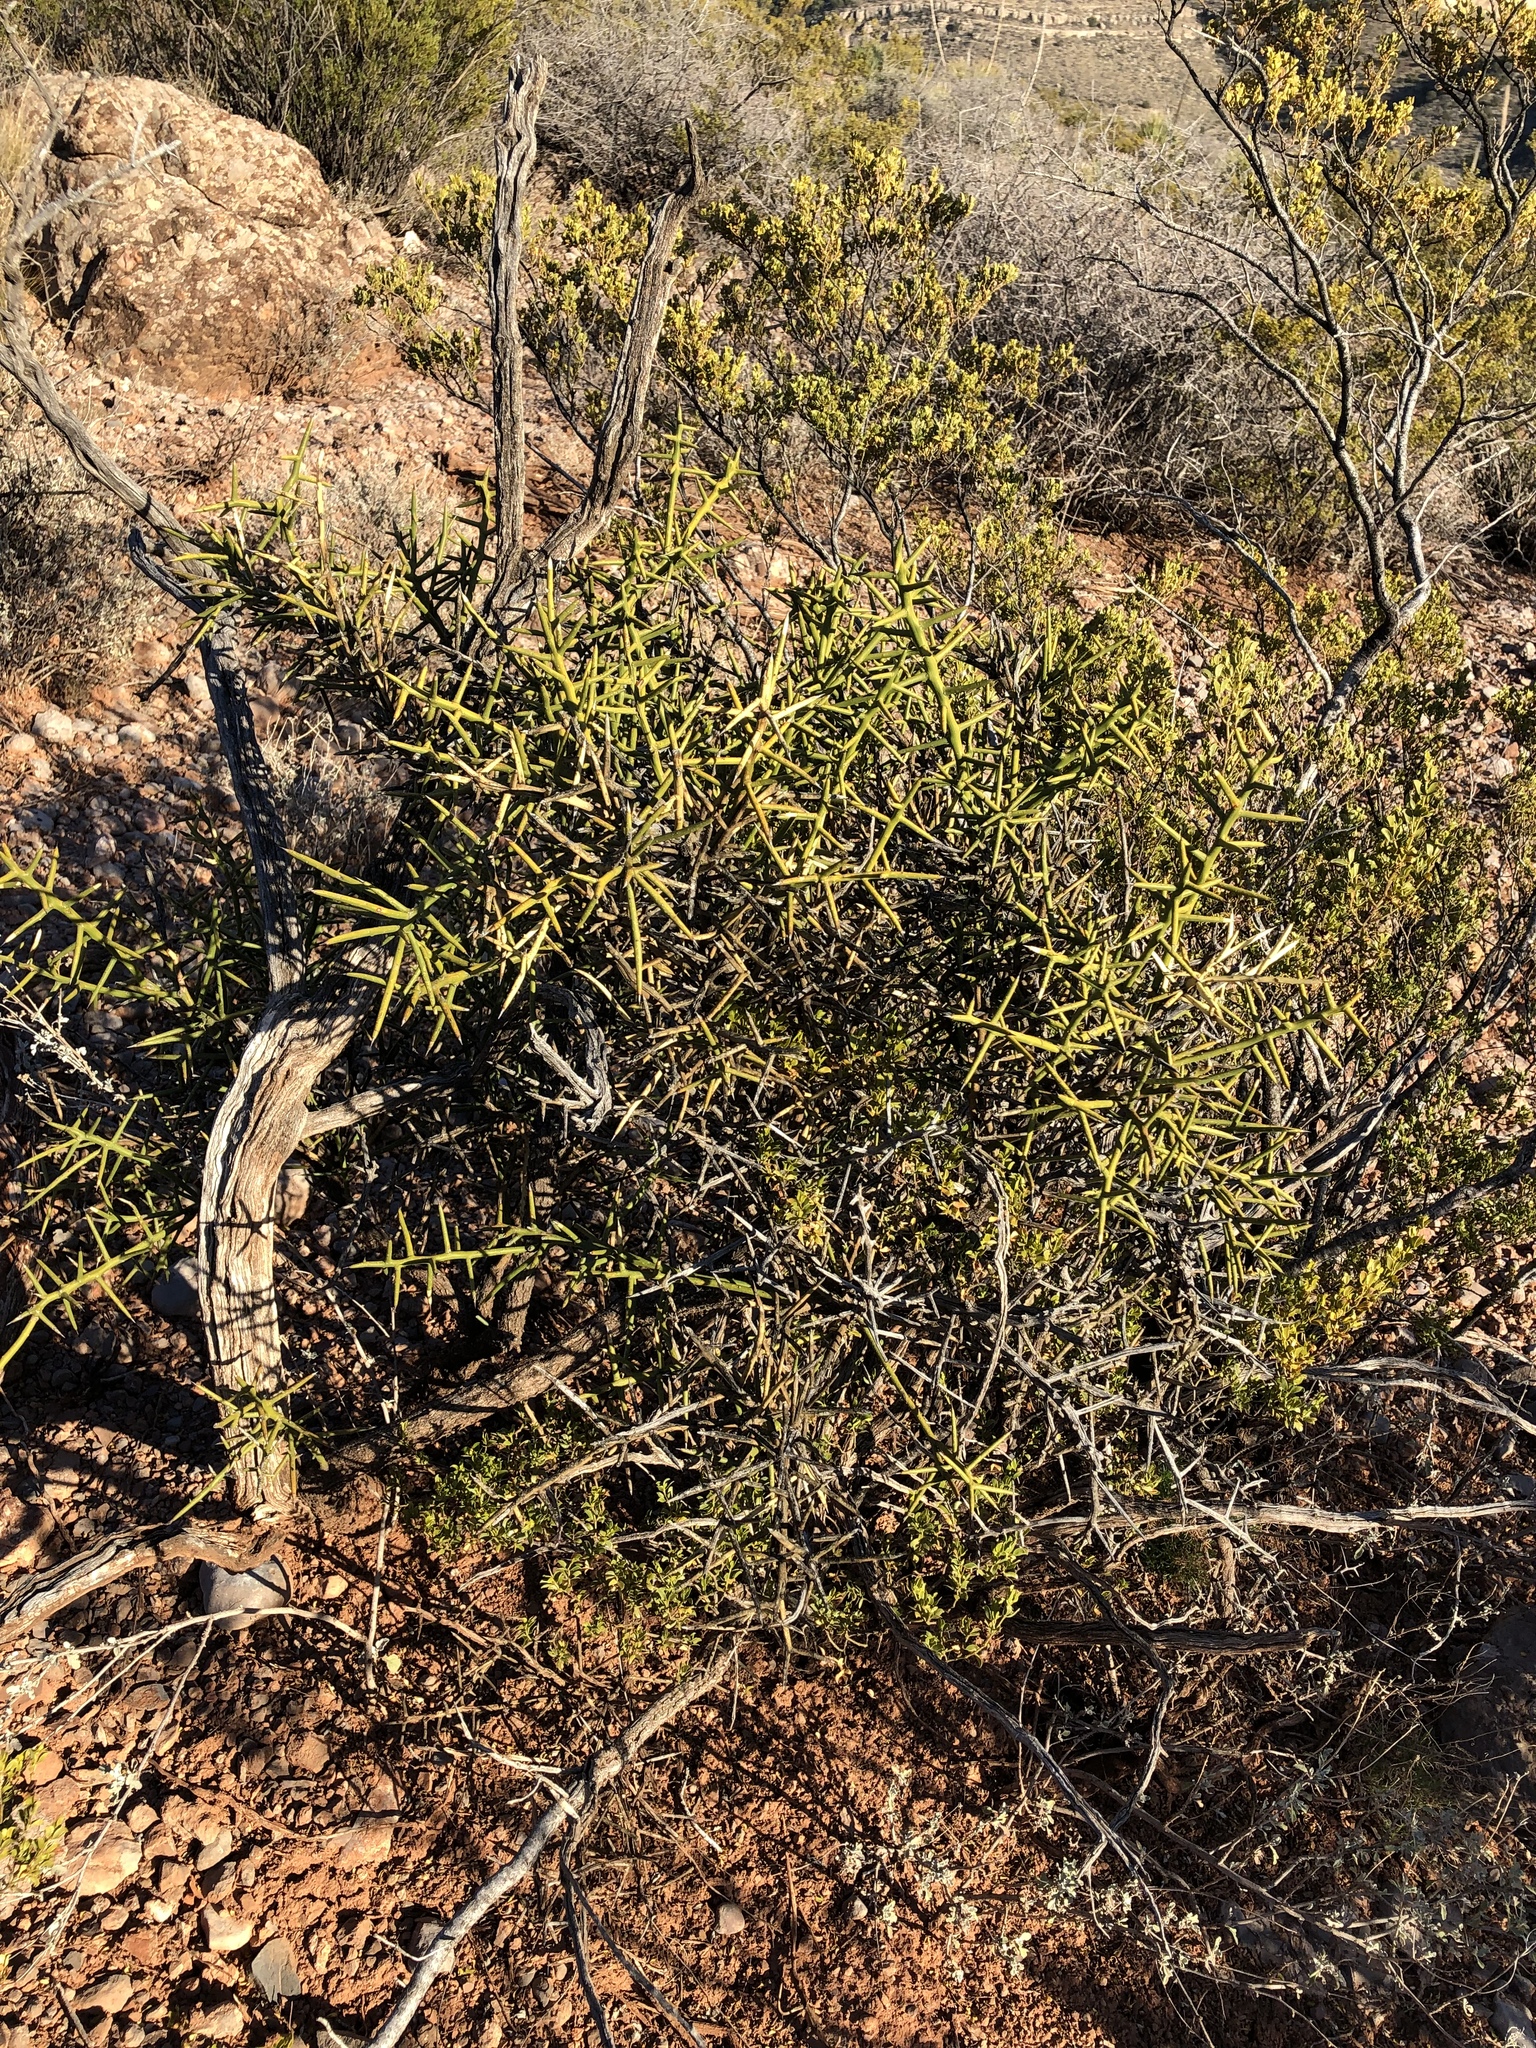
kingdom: Plantae
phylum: Tracheophyta
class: Magnoliopsida
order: Brassicales
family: Koeberliniaceae
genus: Koeberlinia
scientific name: Koeberlinia spinosa
